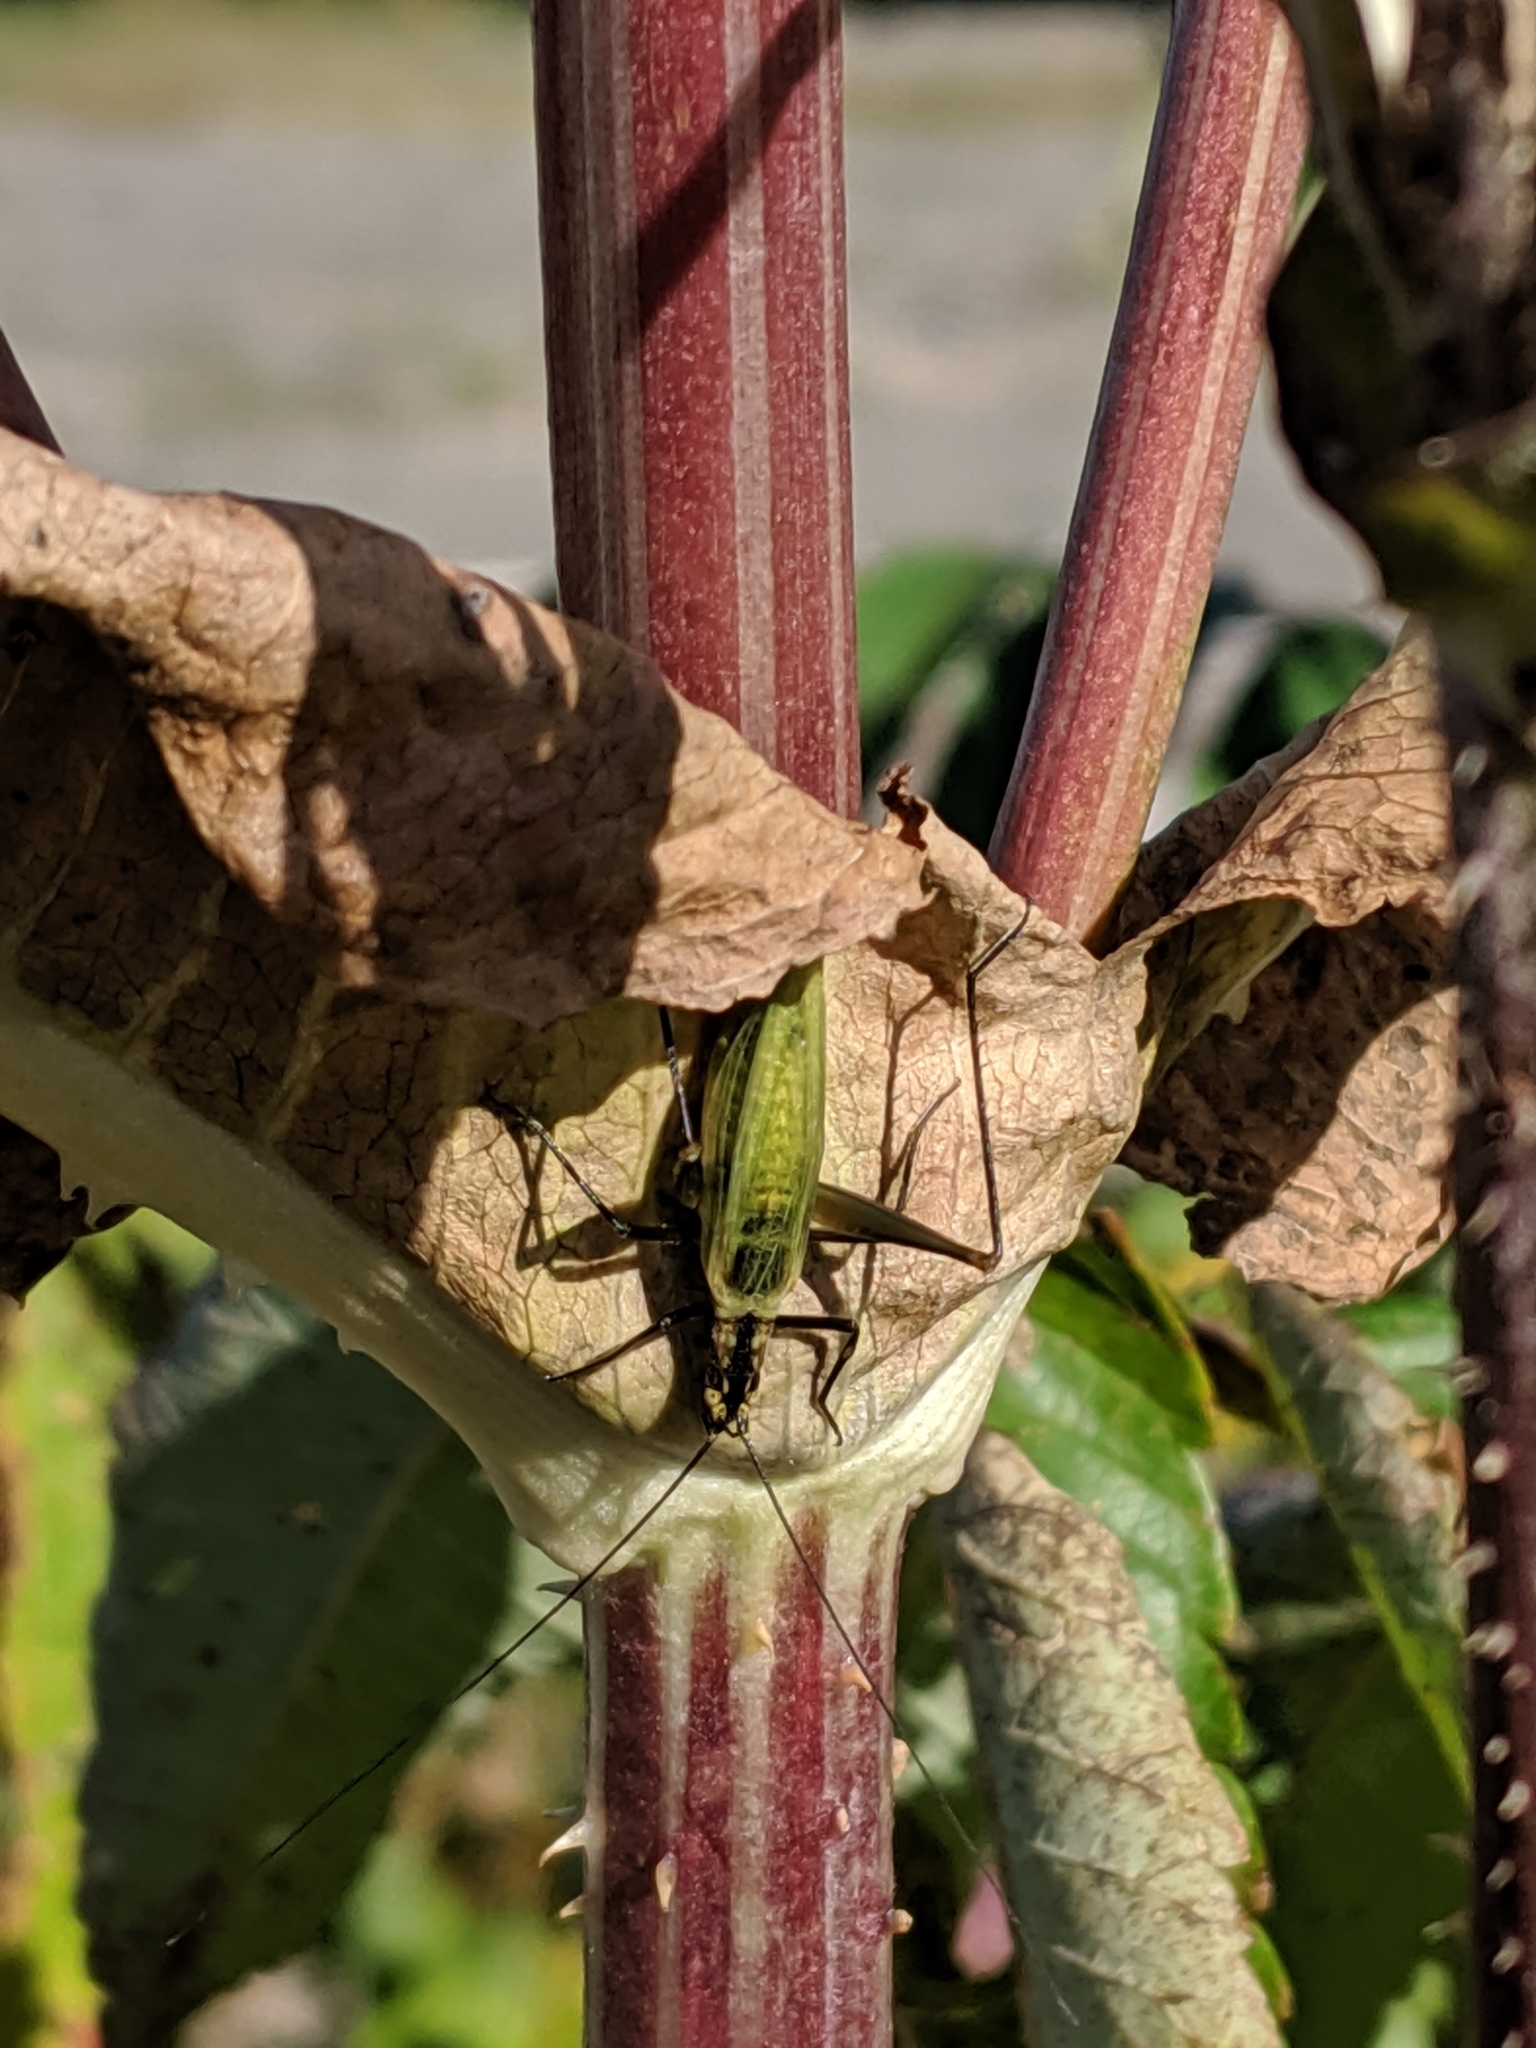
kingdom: Animalia
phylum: Arthropoda
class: Insecta
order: Orthoptera
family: Gryllidae
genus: Oecanthus
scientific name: Oecanthus nigricornis
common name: Black-horned tree cricket
